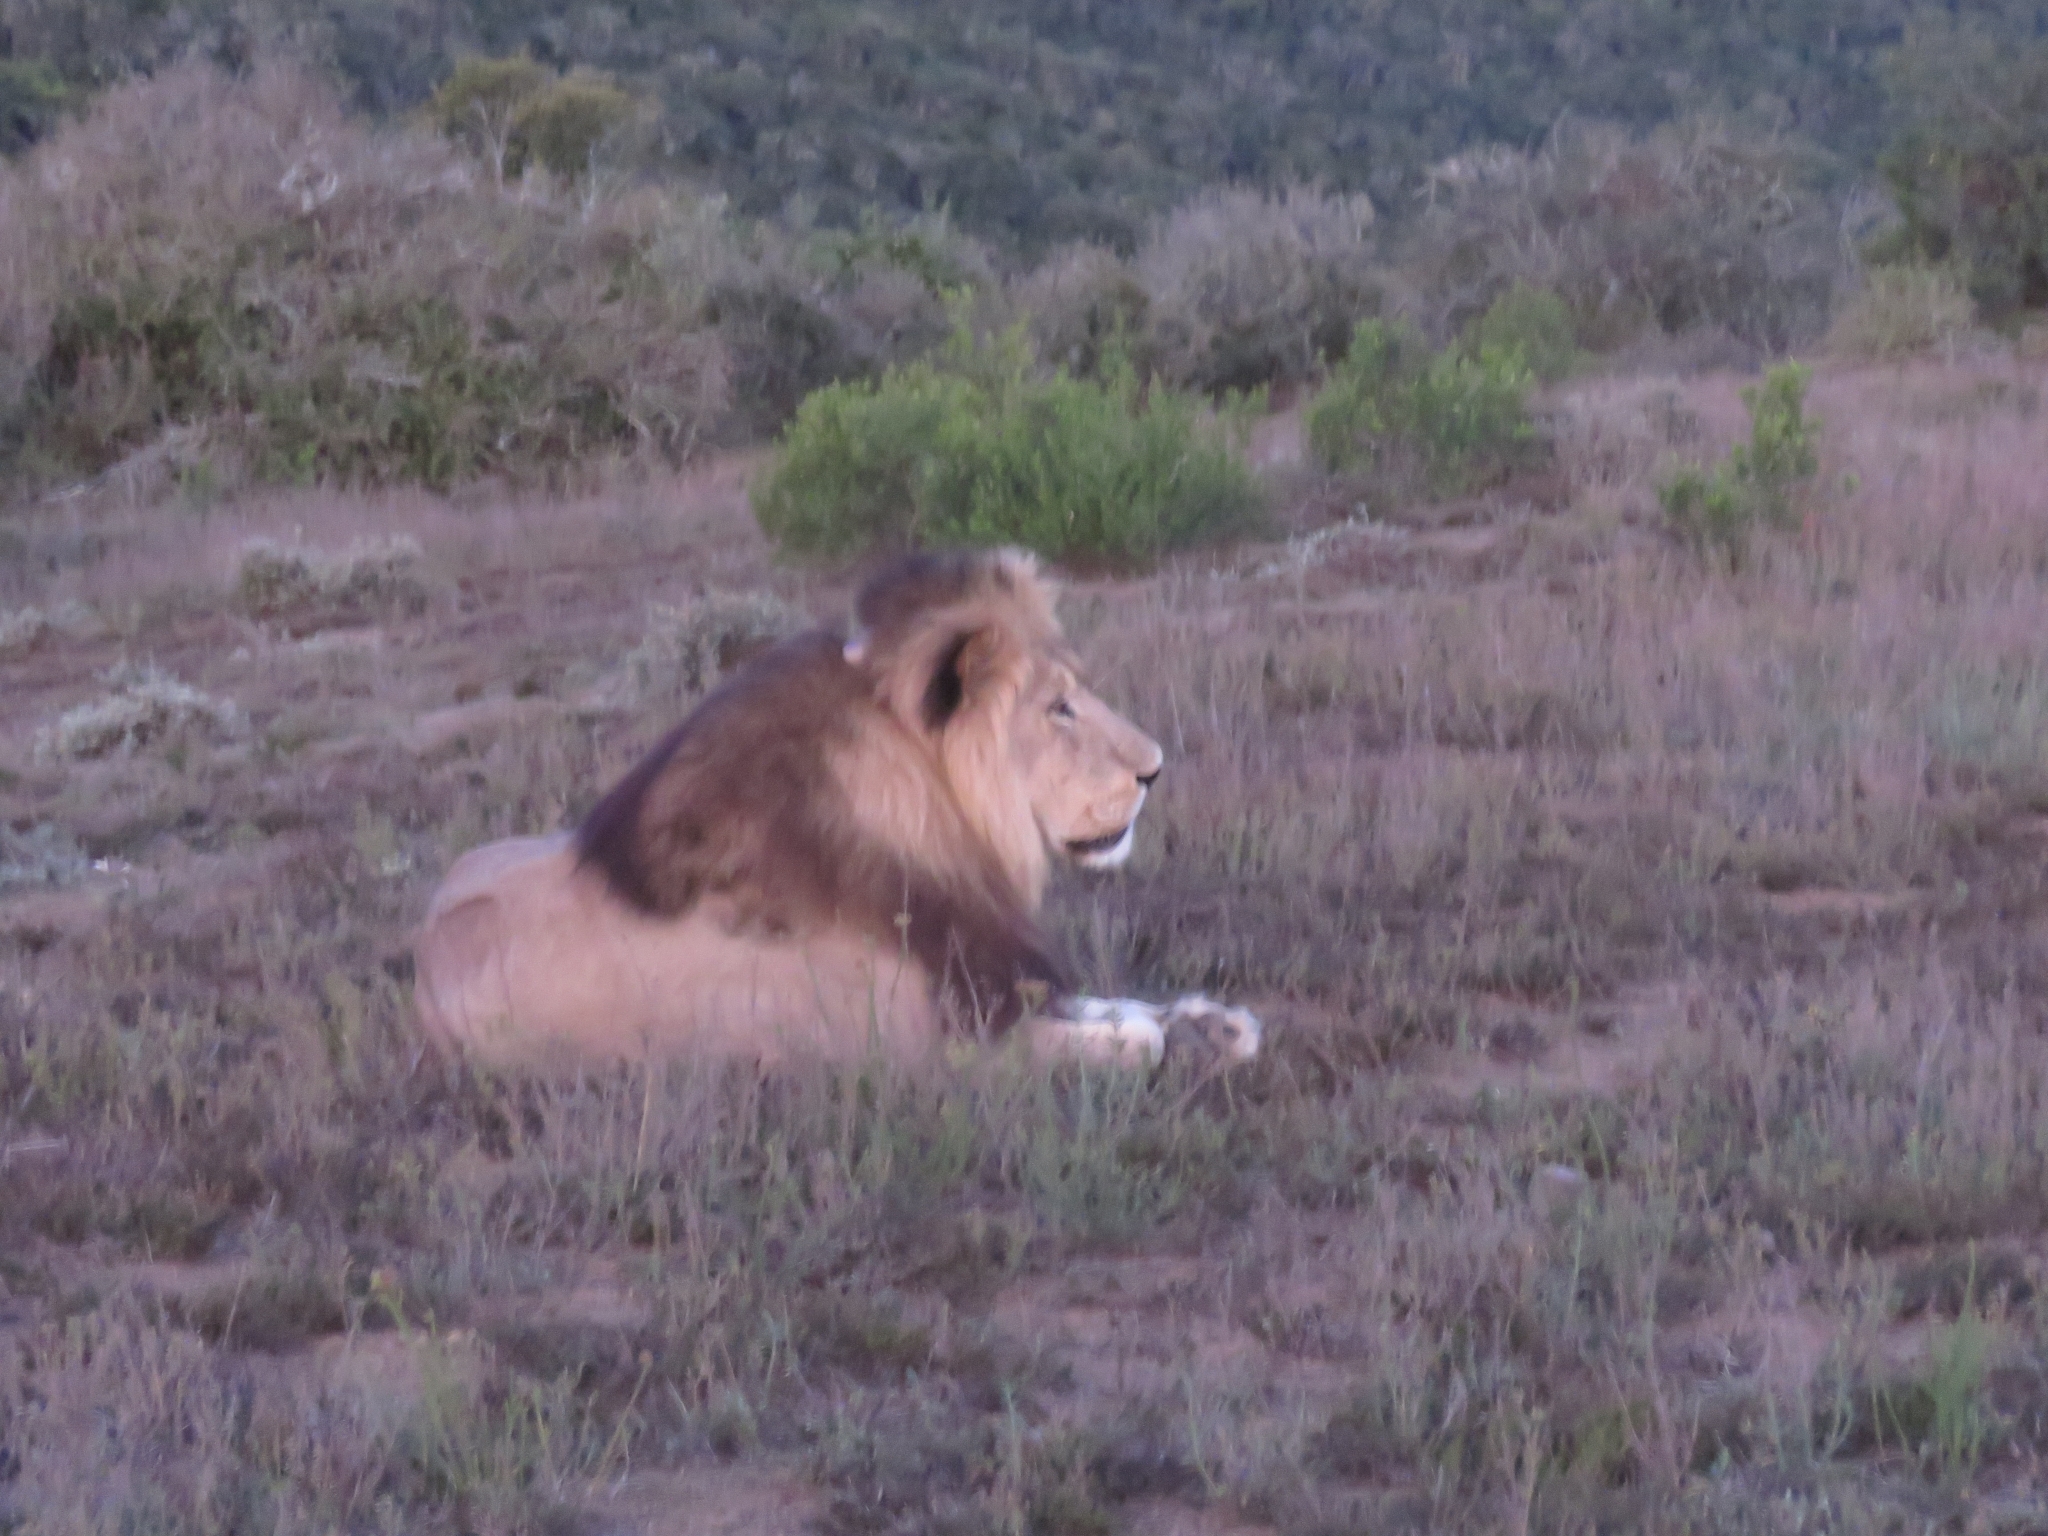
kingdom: Animalia
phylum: Chordata
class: Mammalia
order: Carnivora
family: Felidae
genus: Panthera
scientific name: Panthera leo
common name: Lion
